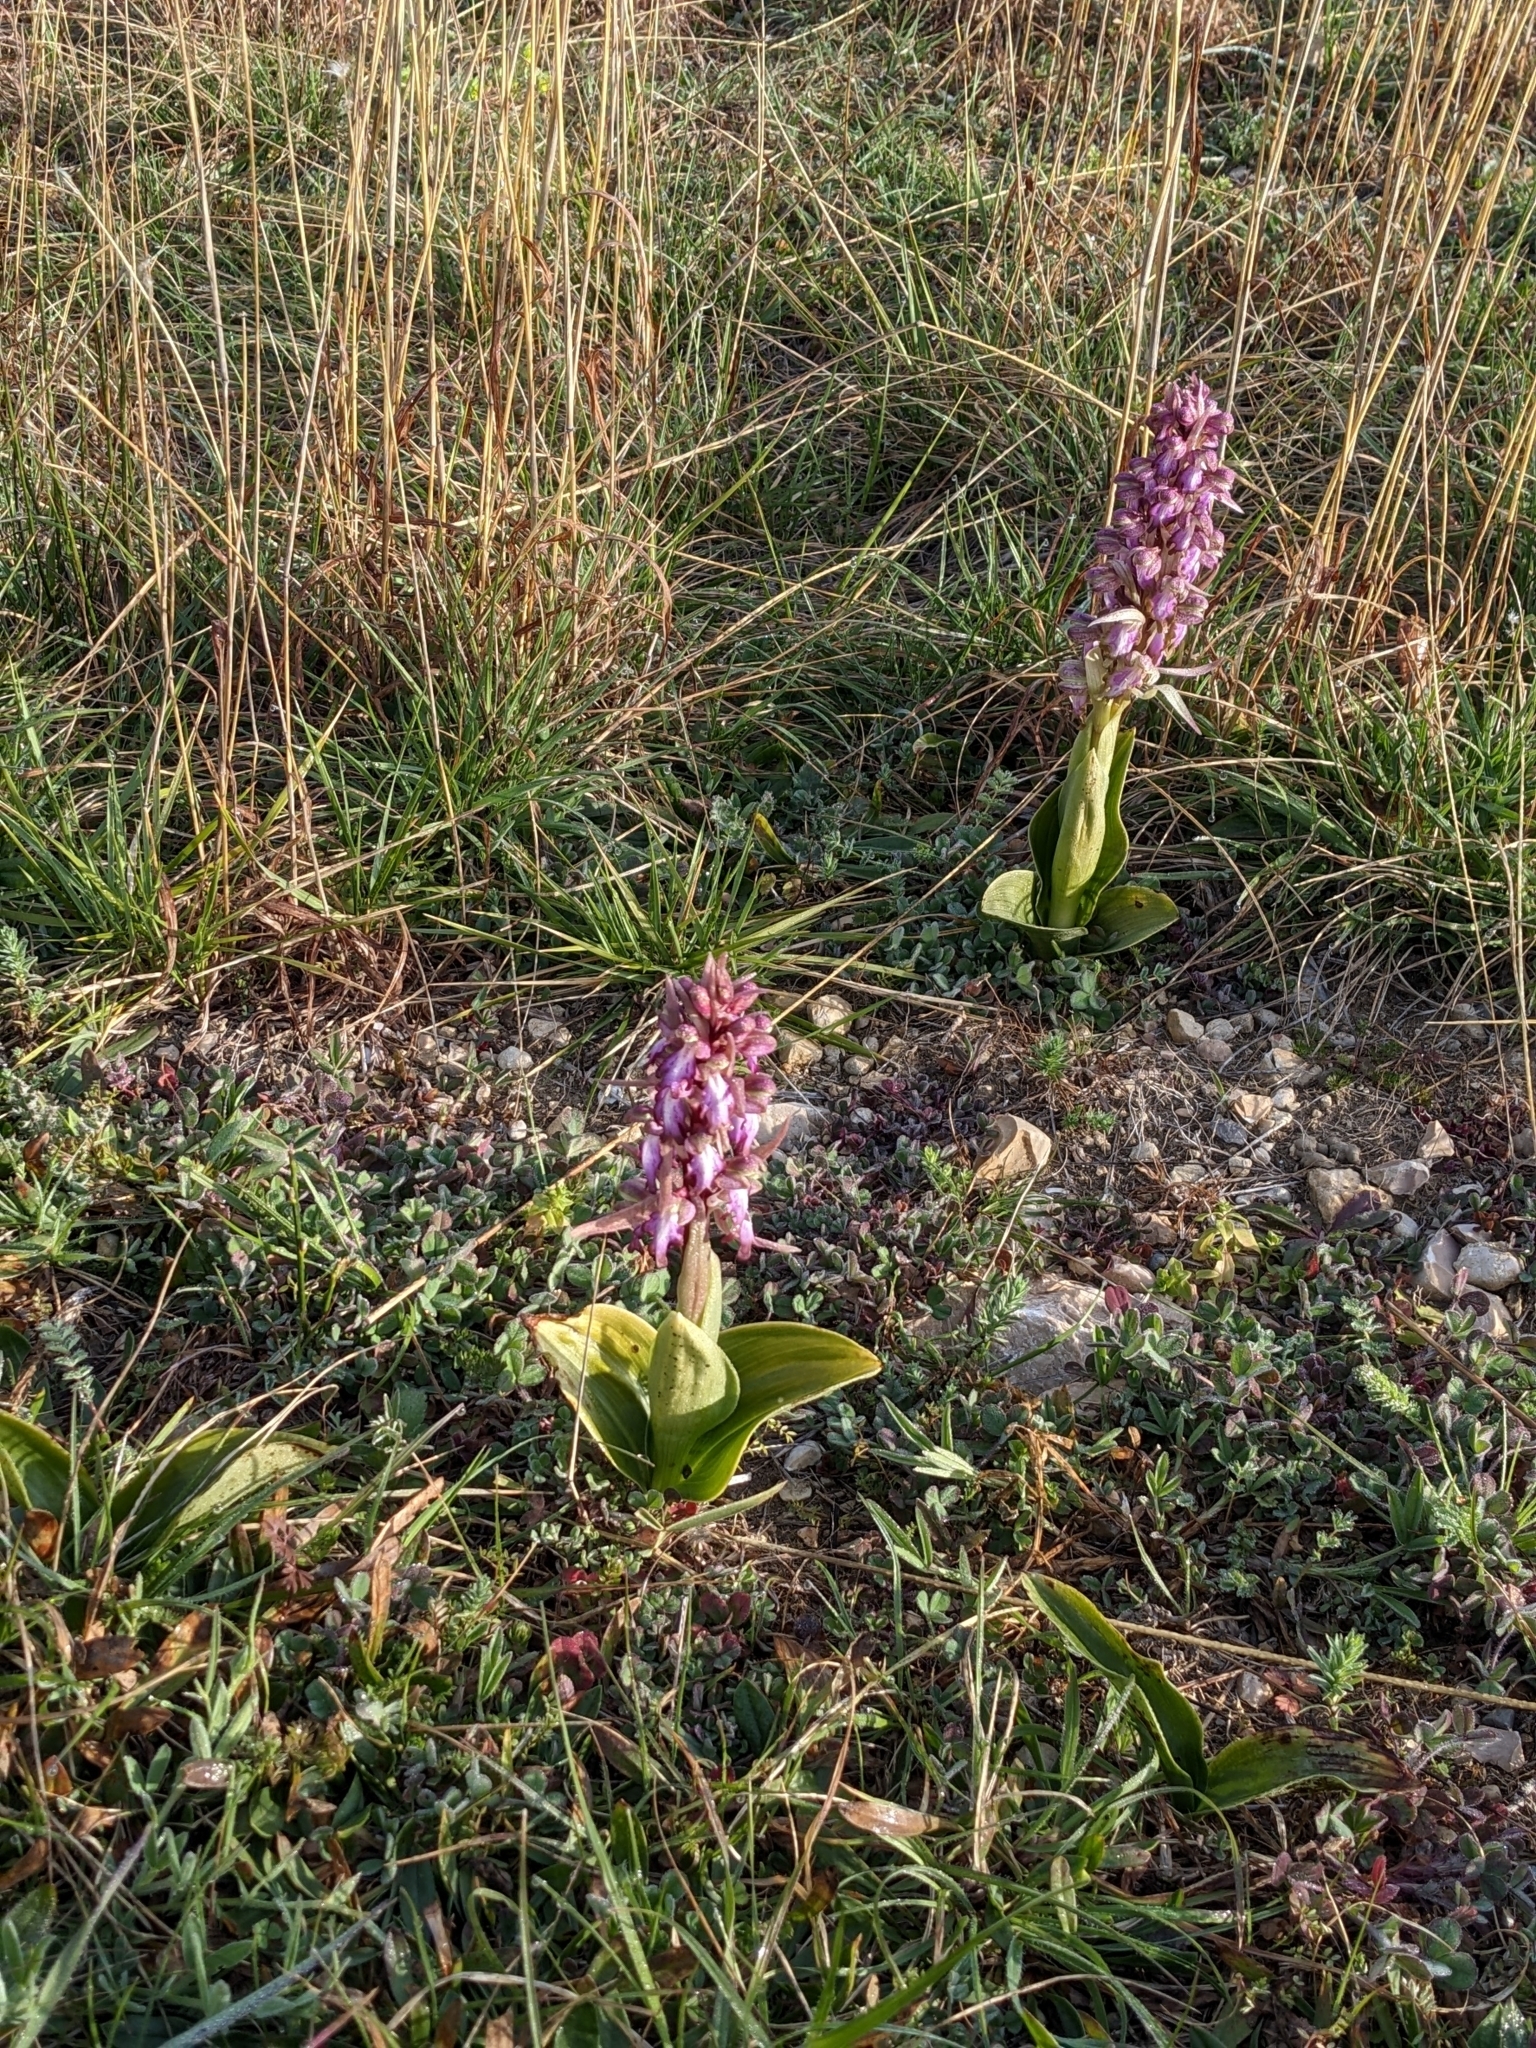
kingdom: Plantae
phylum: Tracheophyta
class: Liliopsida
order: Asparagales
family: Orchidaceae
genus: Himantoglossum
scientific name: Himantoglossum robertianum
